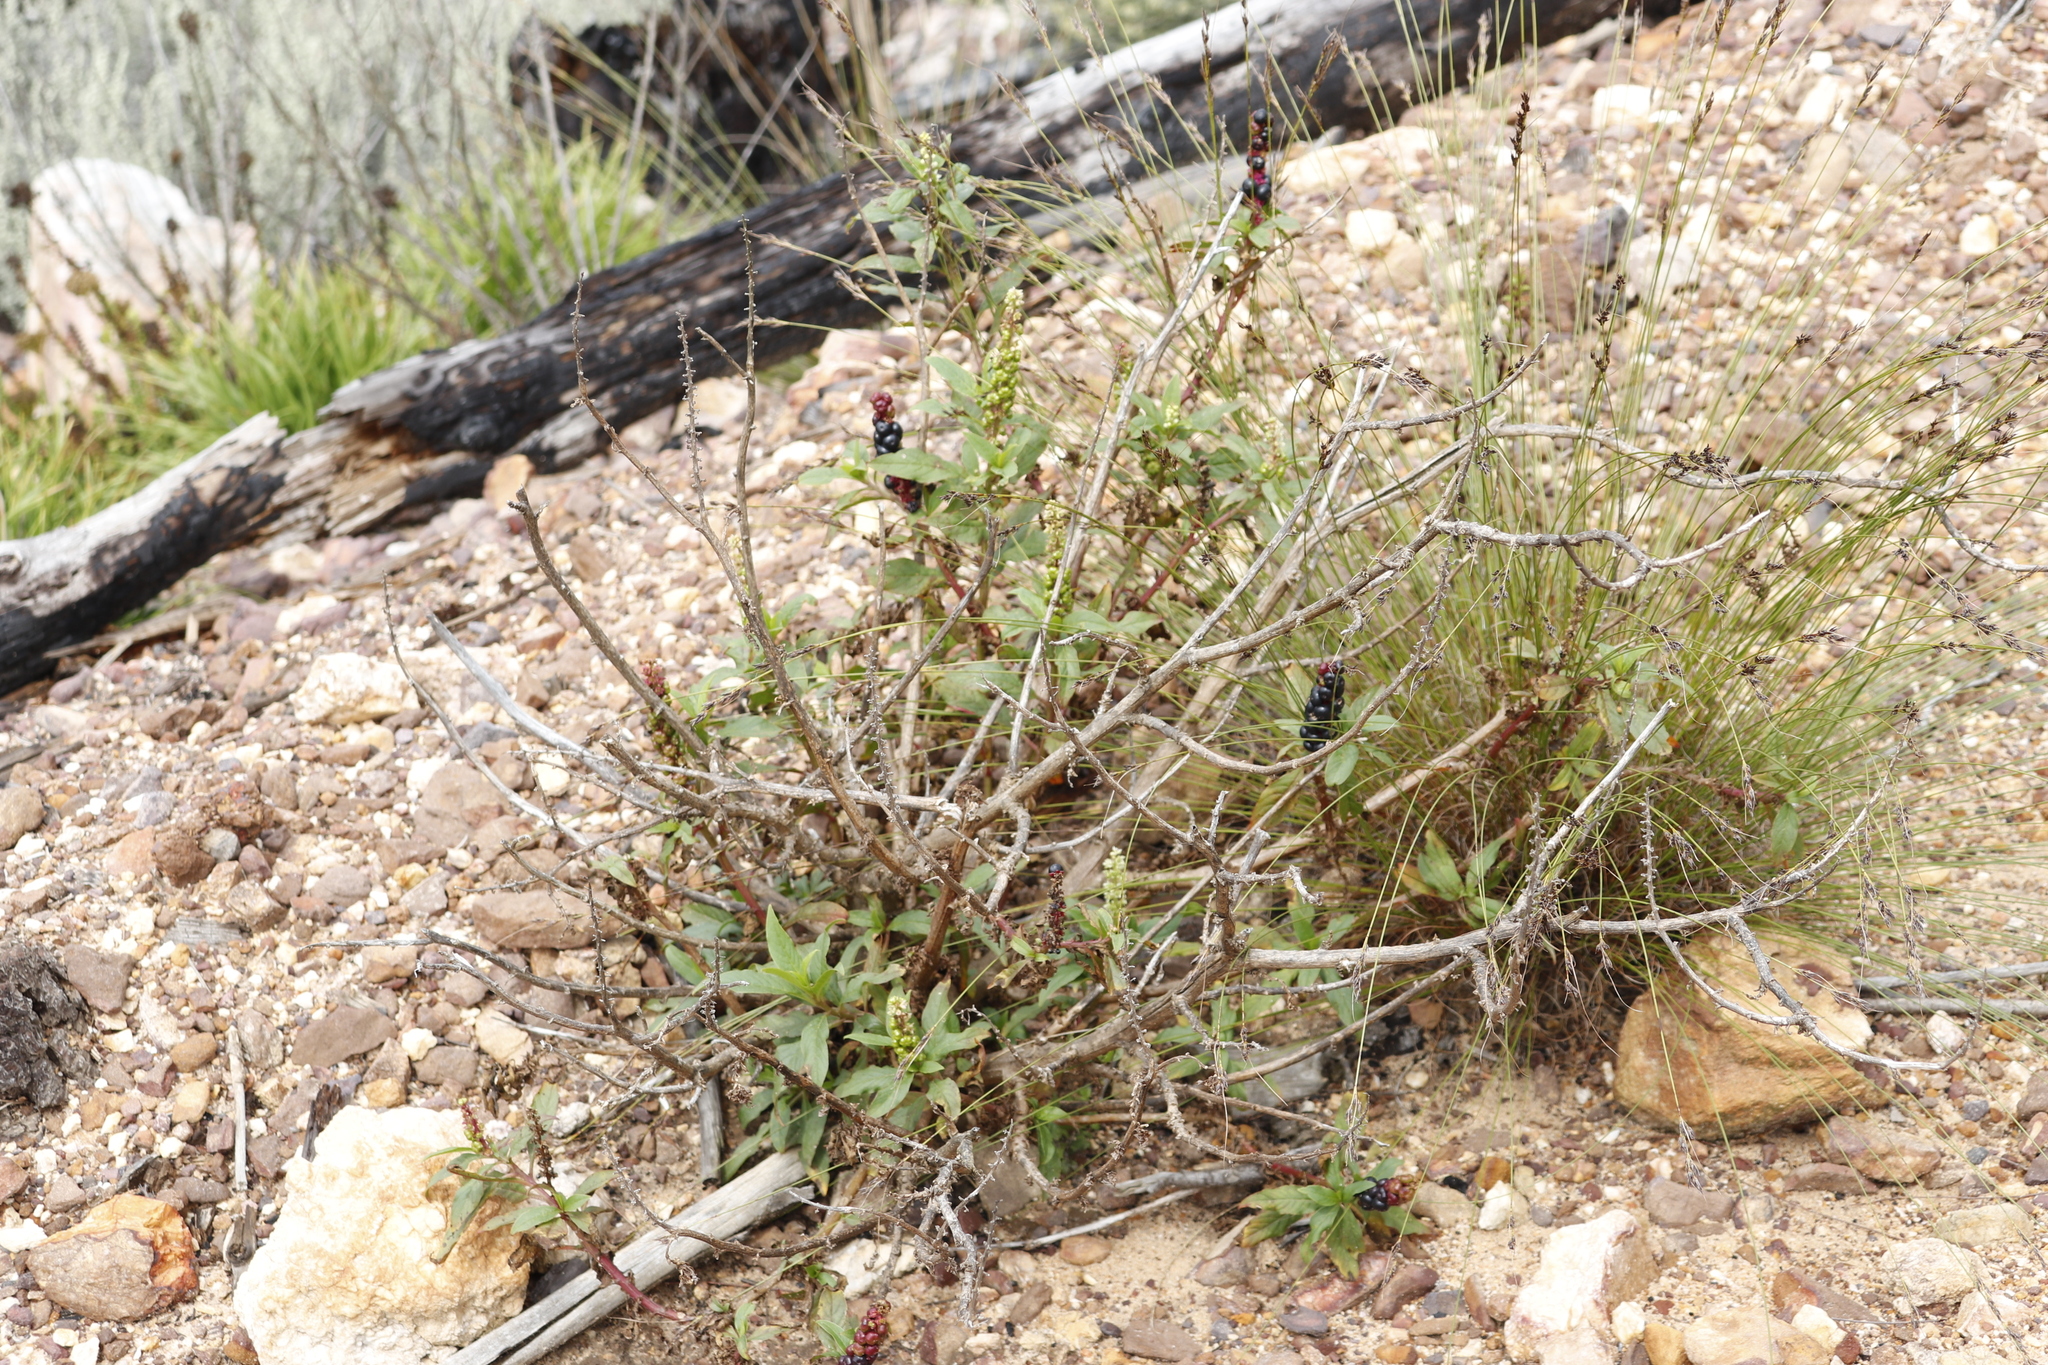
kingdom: Plantae
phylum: Tracheophyta
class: Magnoliopsida
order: Caryophyllales
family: Phytolaccaceae
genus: Phytolacca
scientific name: Phytolacca icosandra
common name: Button pokeweed
